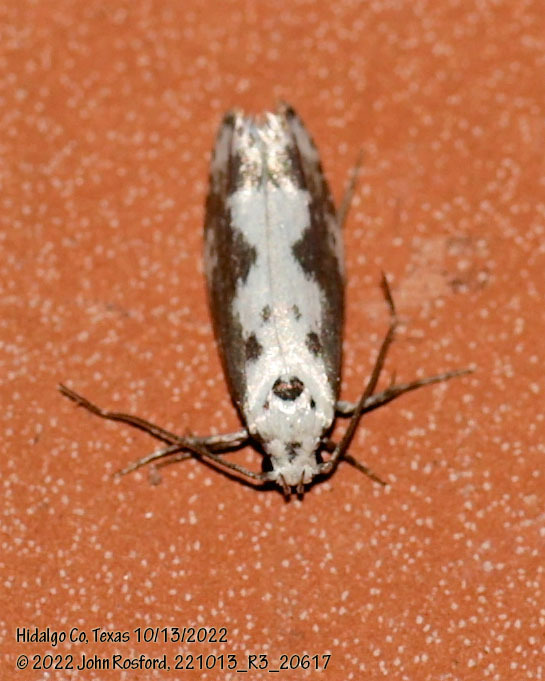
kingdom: Animalia
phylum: Arthropoda
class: Insecta
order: Lepidoptera
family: Ethmiidae
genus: Ethmia
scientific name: Ethmia hodgesella
